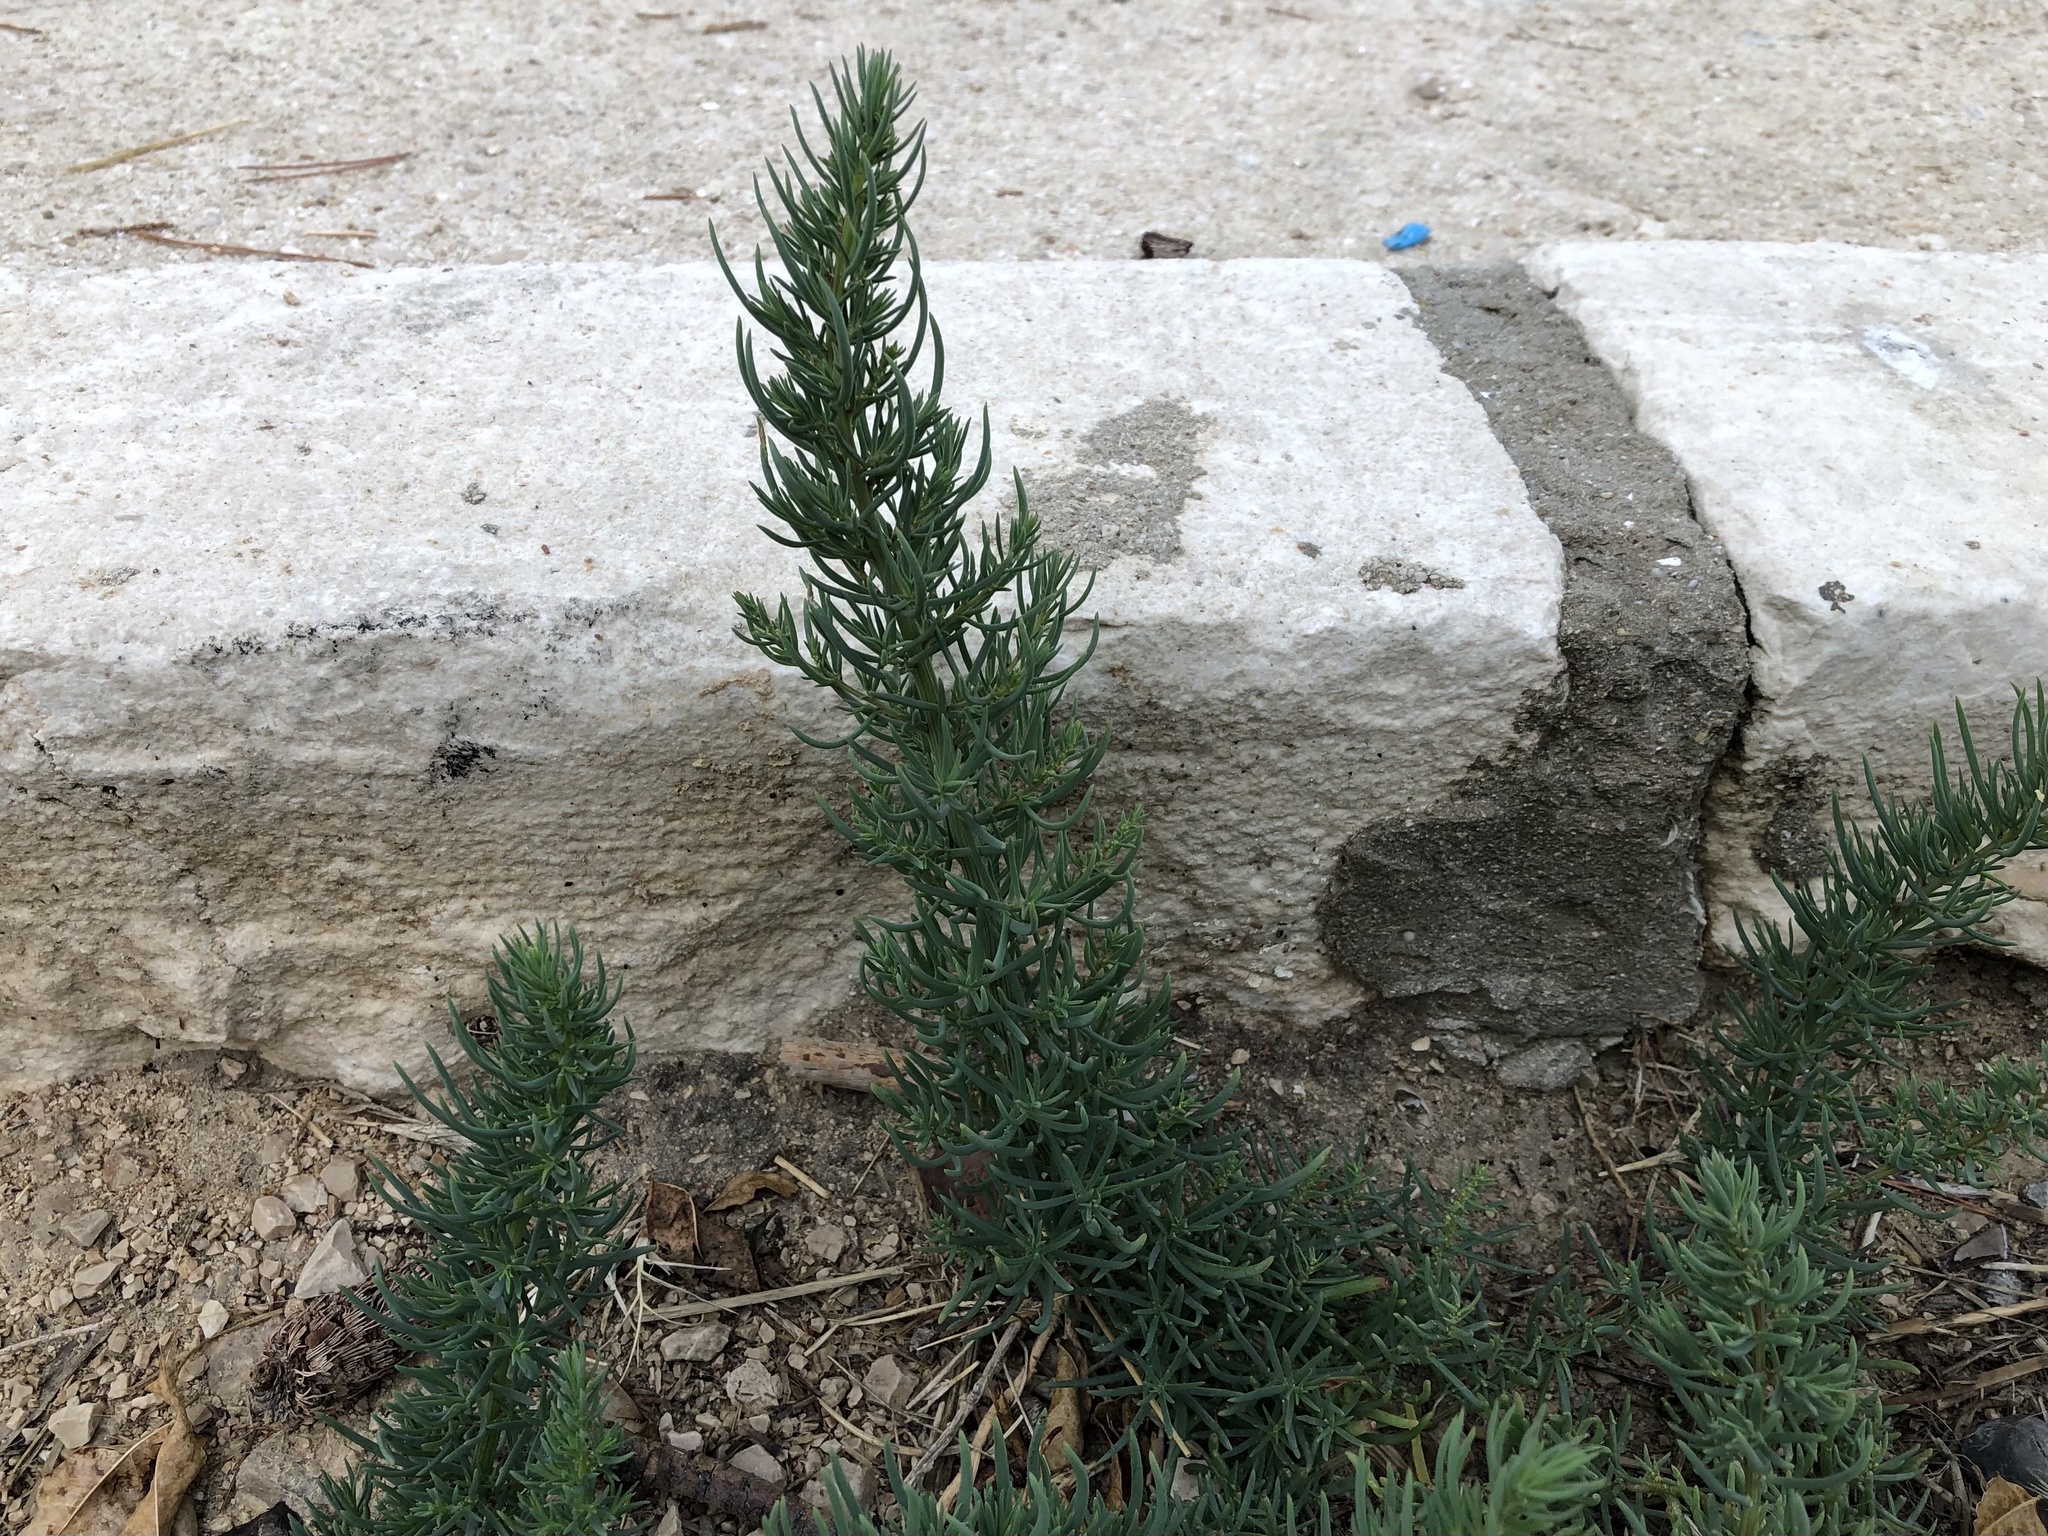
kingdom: Plantae
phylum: Tracheophyta
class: Magnoliopsida
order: Asterales
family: Asteraceae
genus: Limbarda
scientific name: Limbarda crithmoides
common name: Golden samphire
